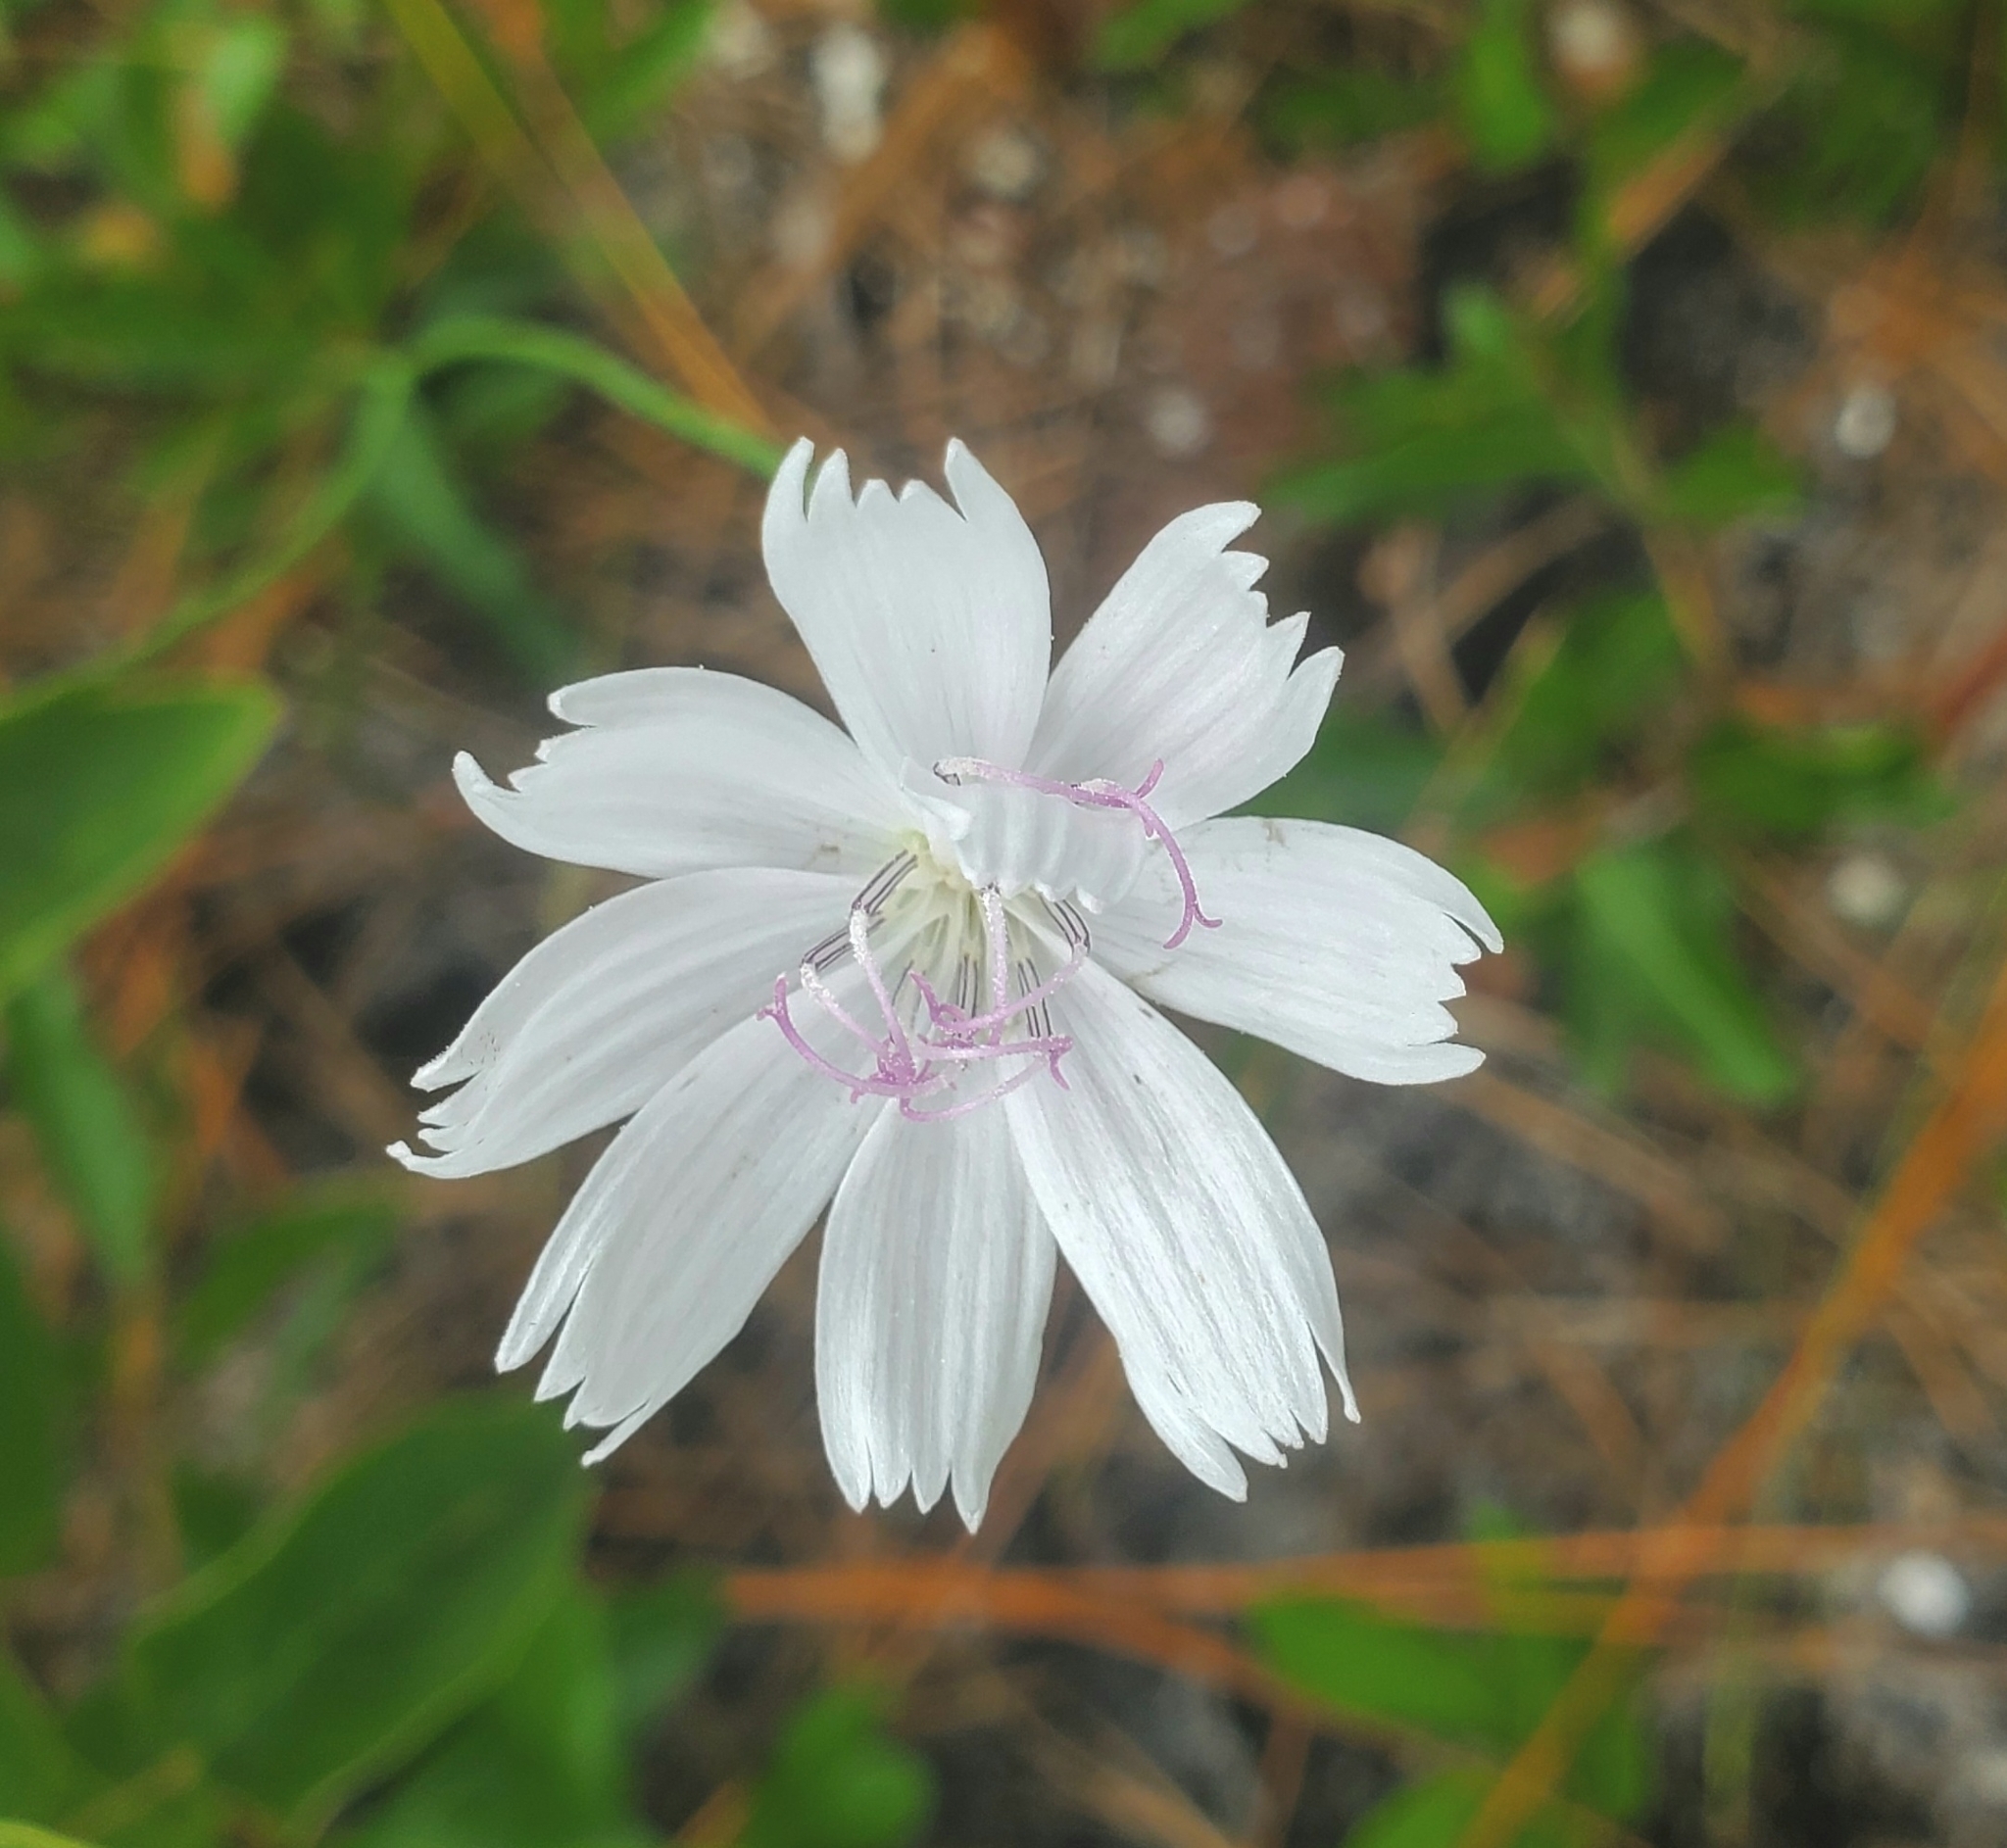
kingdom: Plantae
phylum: Tracheophyta
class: Magnoliopsida
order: Asterales
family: Asteraceae
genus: Lygodesmia
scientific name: Lygodesmia aphylla
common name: Rose-rush
